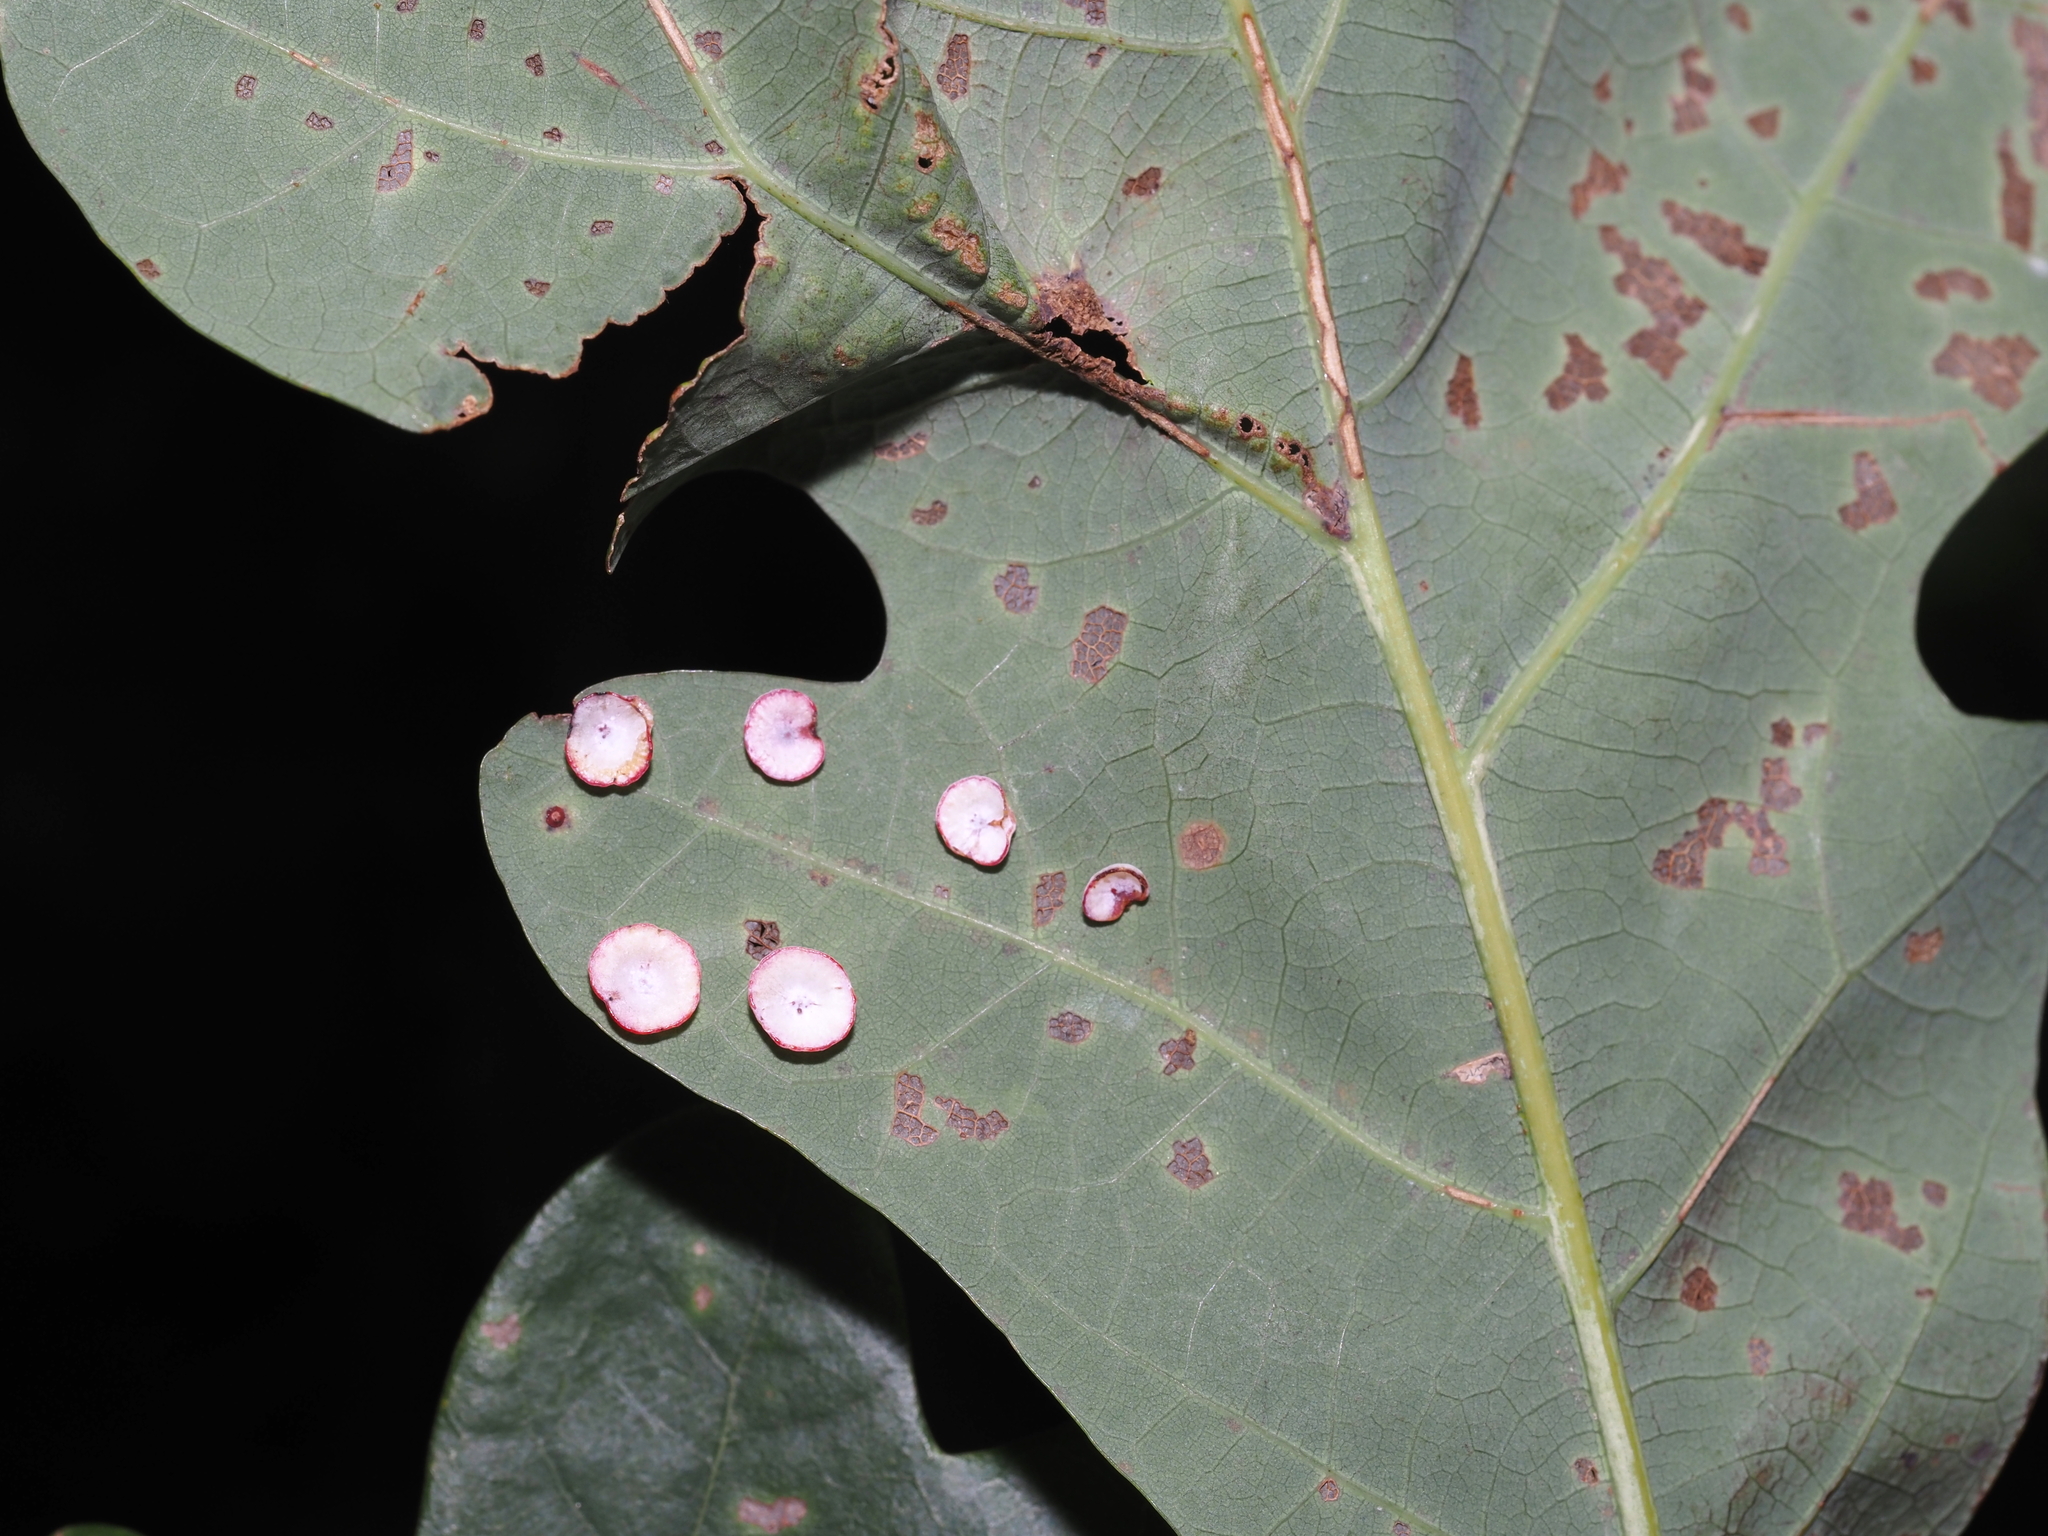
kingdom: Animalia
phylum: Arthropoda
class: Insecta
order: Hymenoptera
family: Cynipidae
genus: Phylloteras
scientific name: Phylloteras poculum
